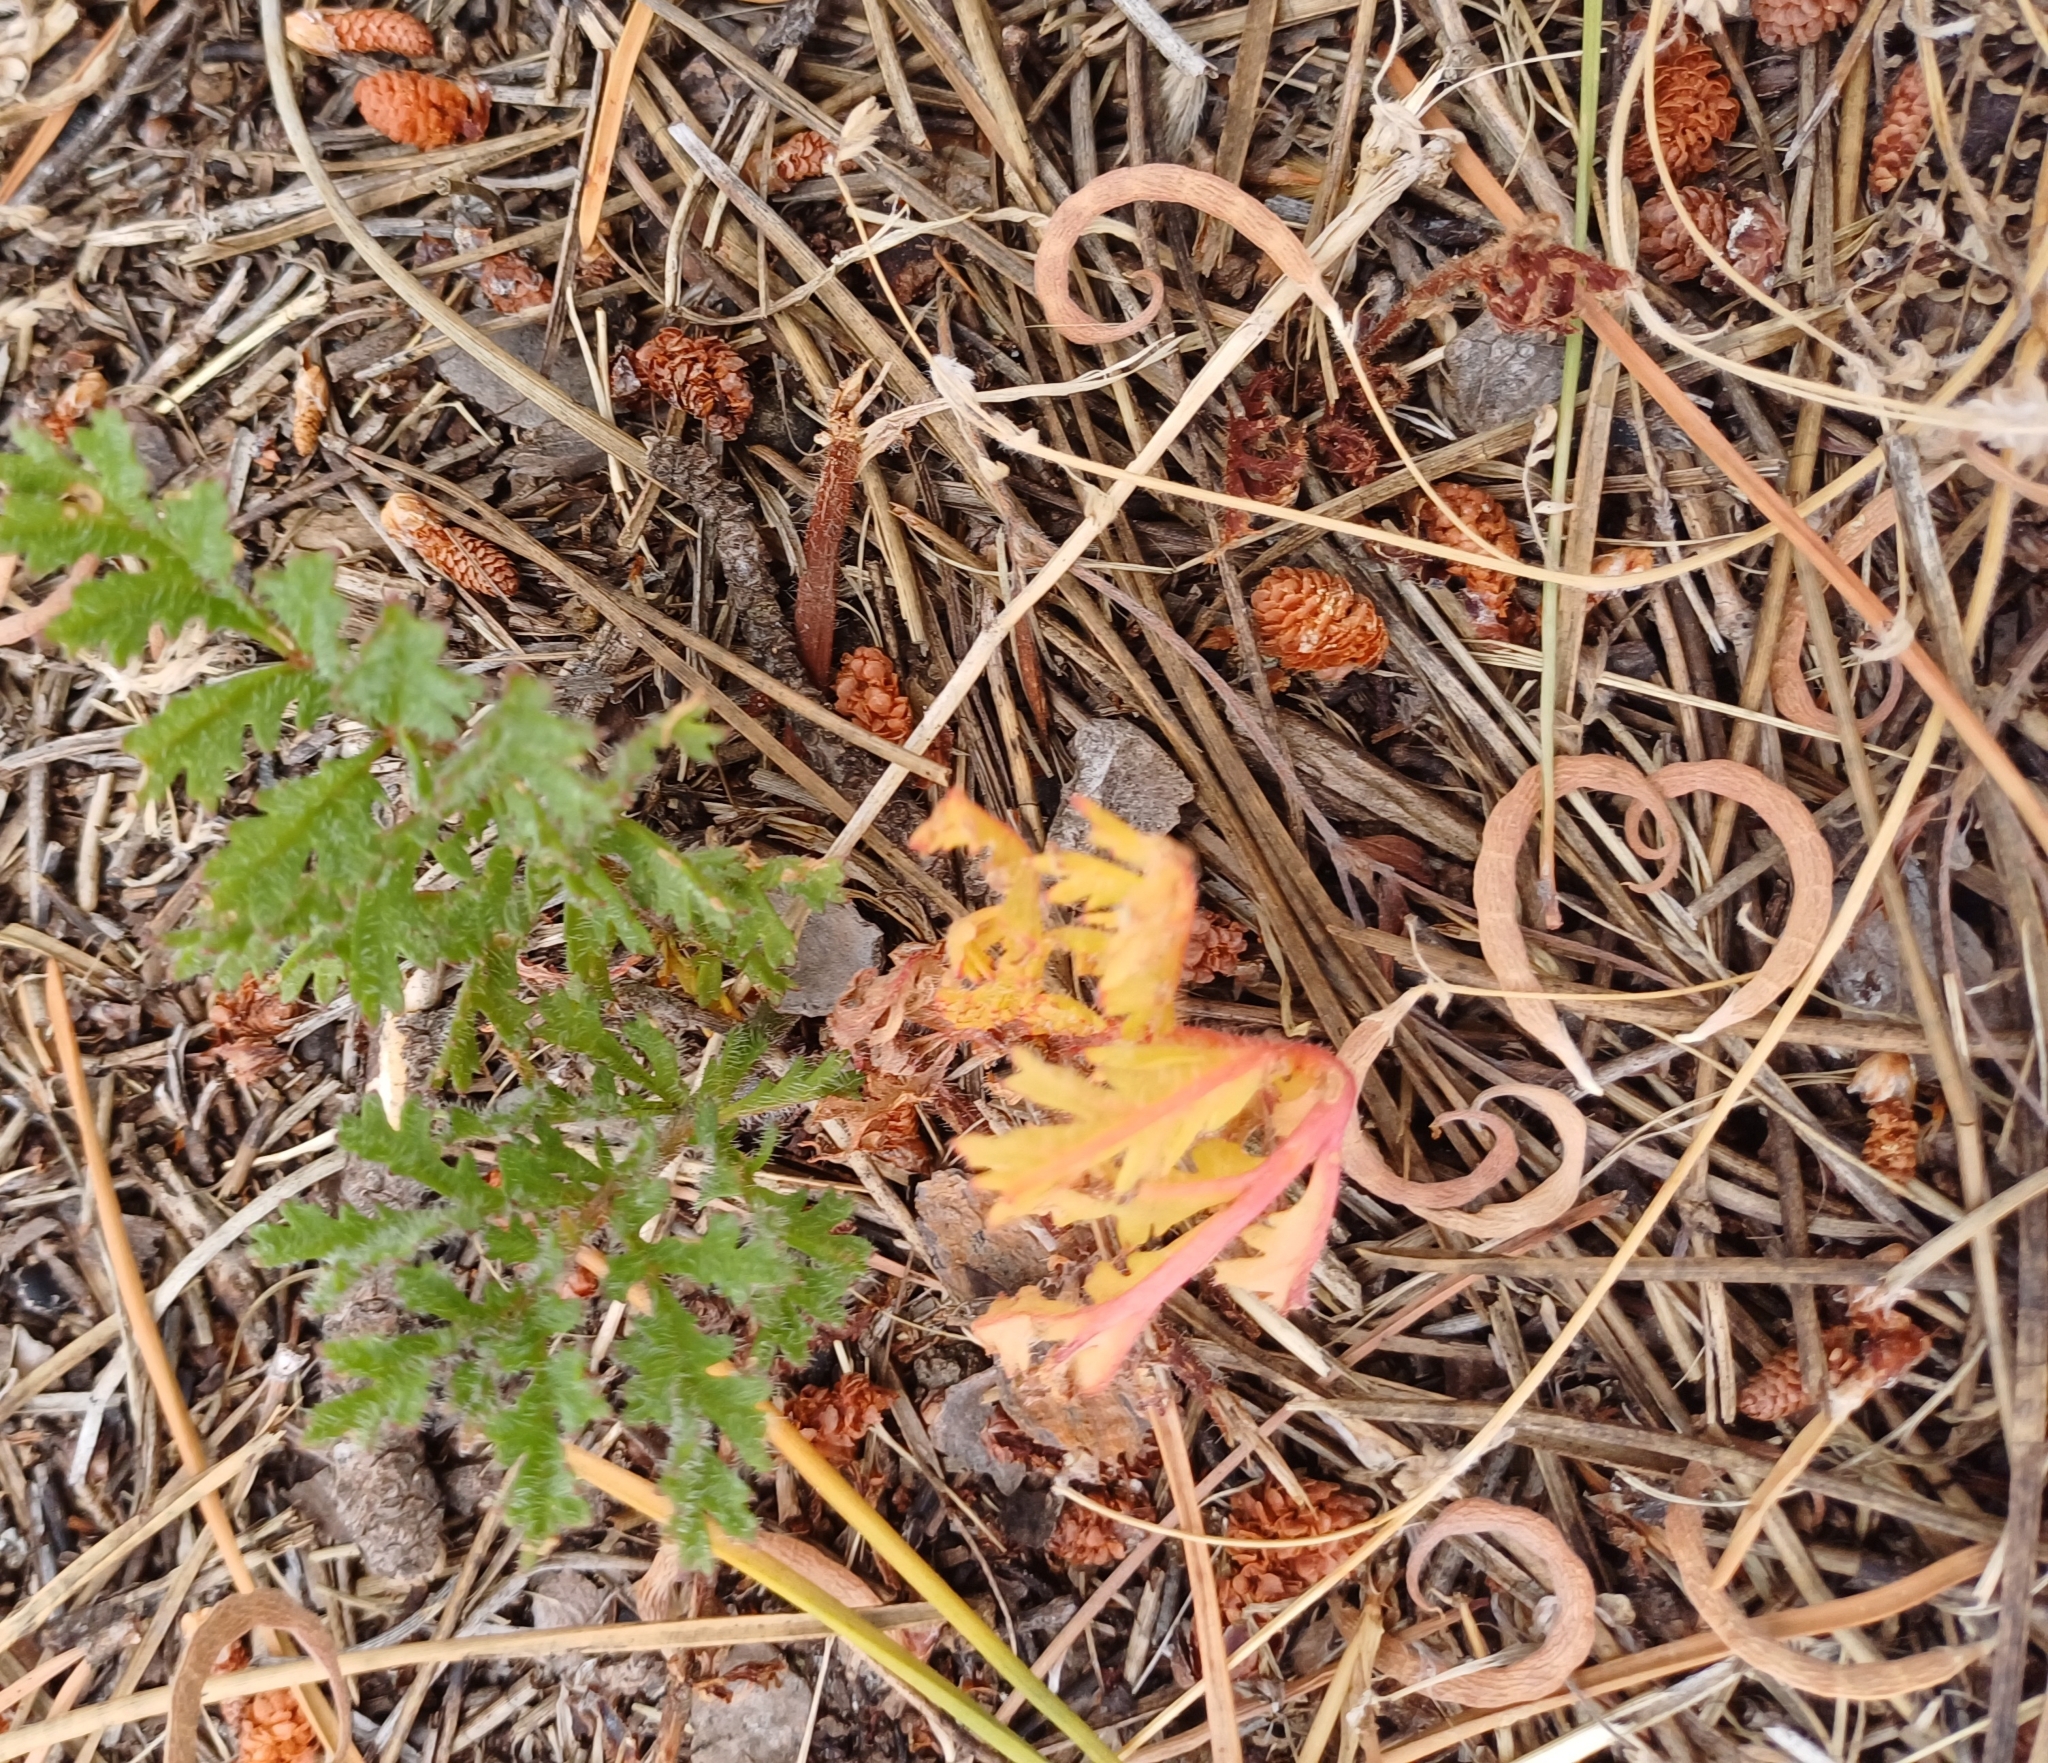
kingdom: Plantae
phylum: Tracheophyta
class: Magnoliopsida
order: Geraniales
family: Geraniaceae
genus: Pelargonium
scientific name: Pelargonium triste
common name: Night-scent pelargonium
